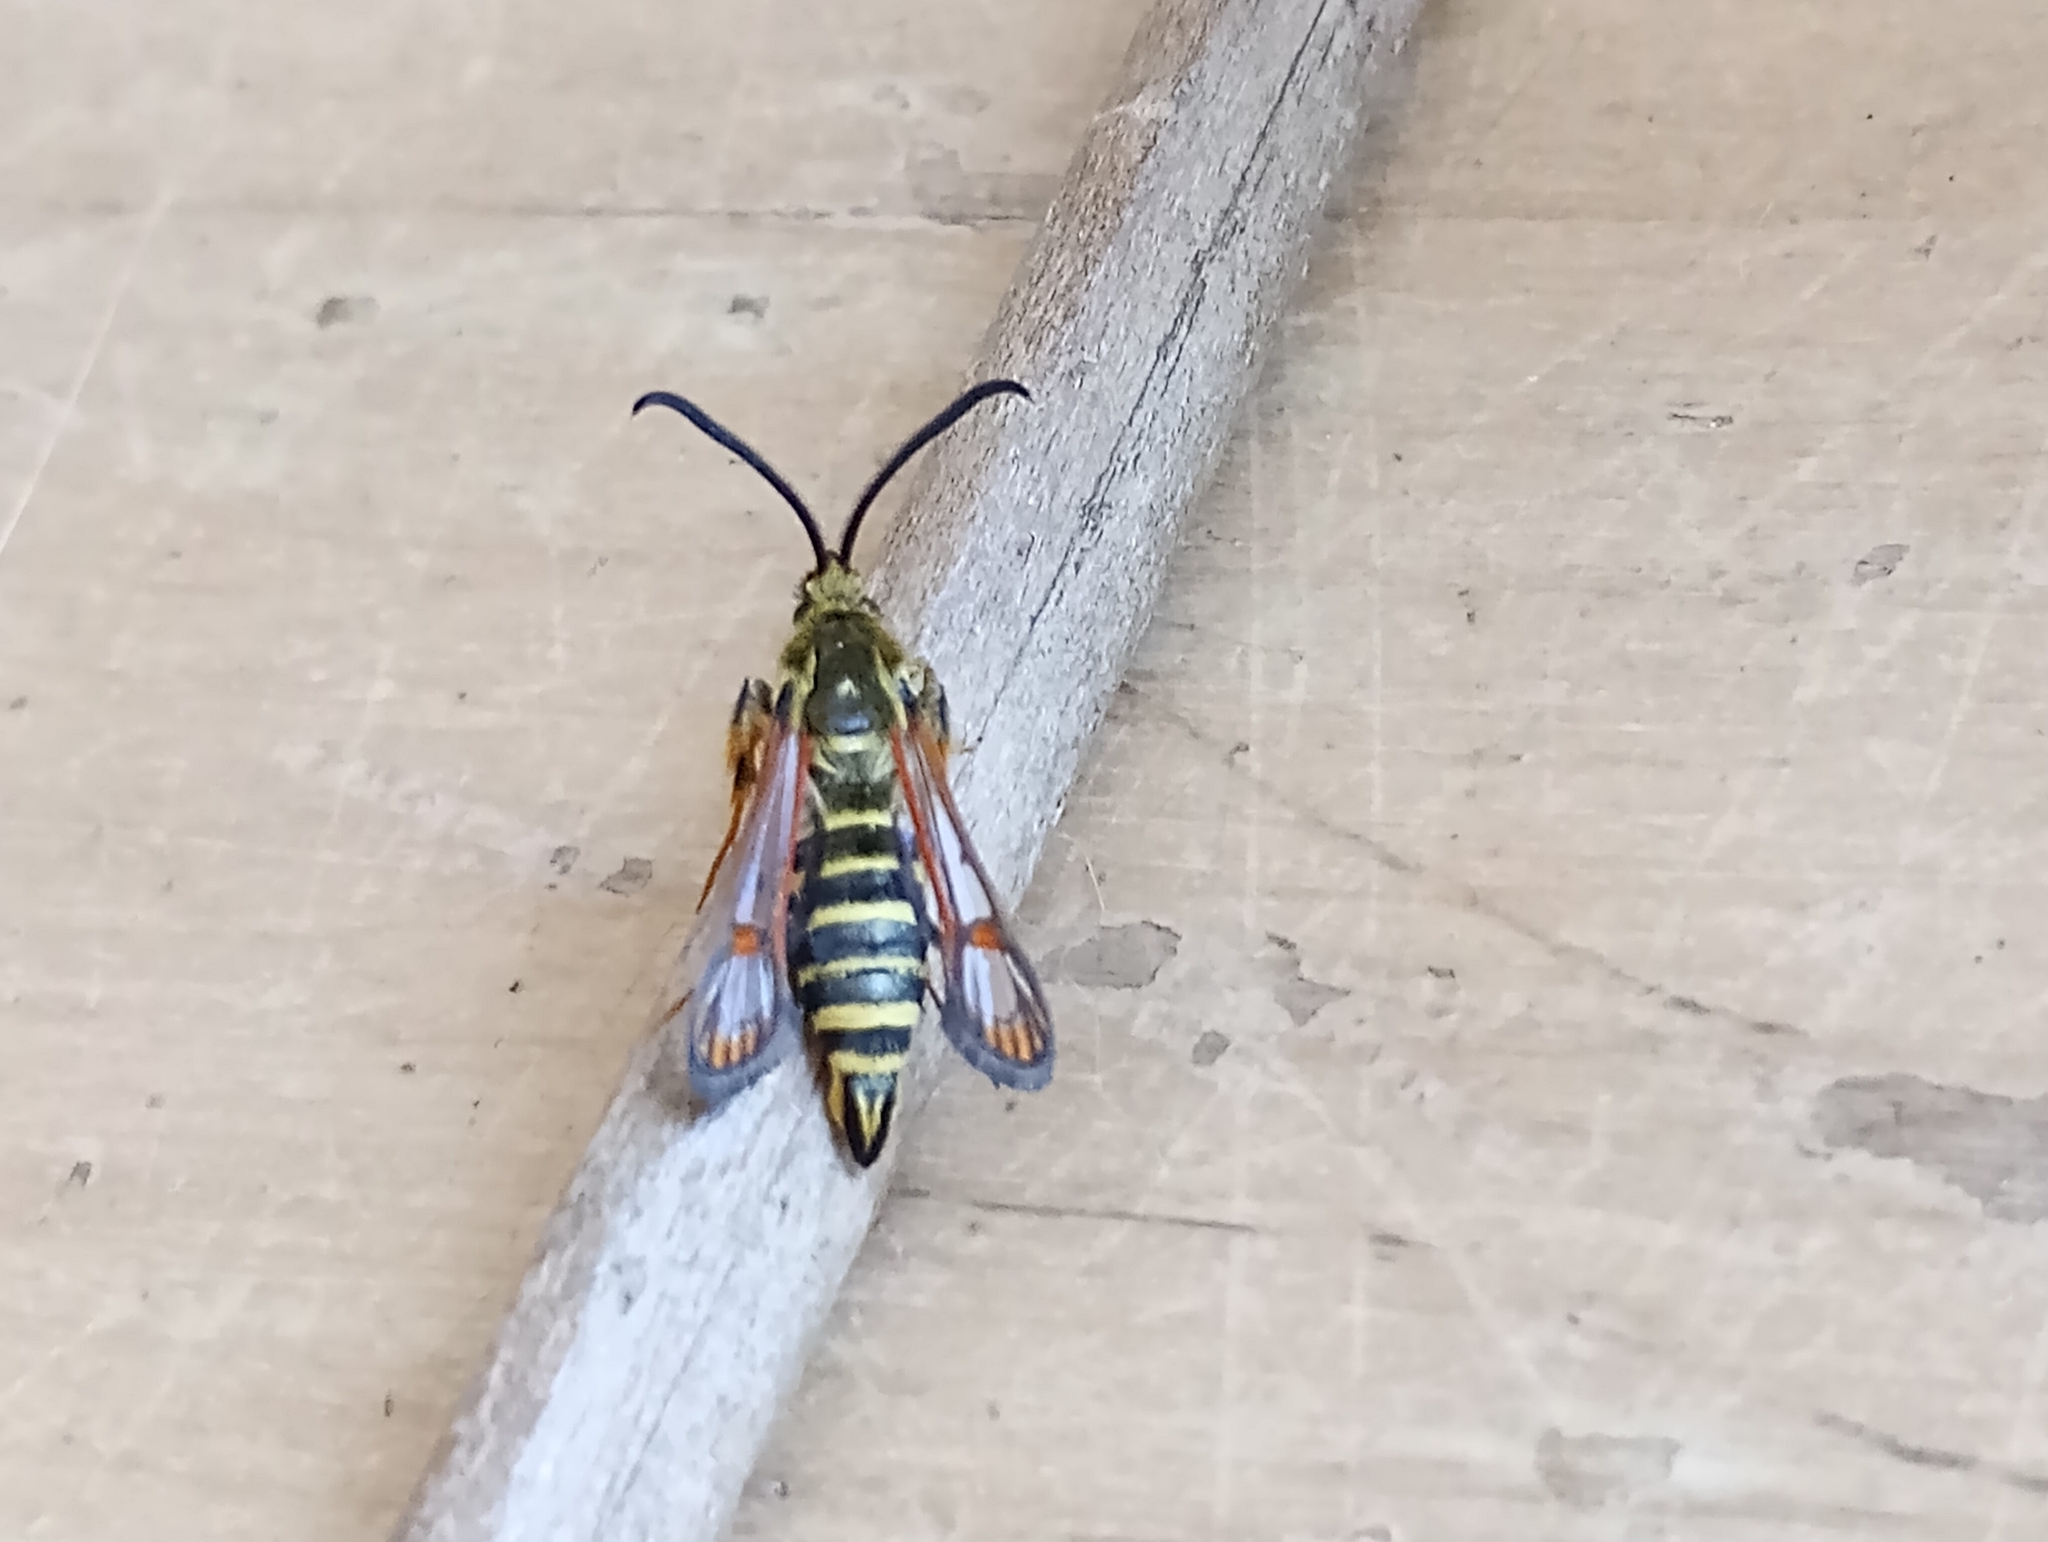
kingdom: Animalia
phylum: Arthropoda
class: Insecta
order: Lepidoptera
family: Sesiidae
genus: Bembecia
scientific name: Bembecia ichneumoniformis
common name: Six-belted clearwing
